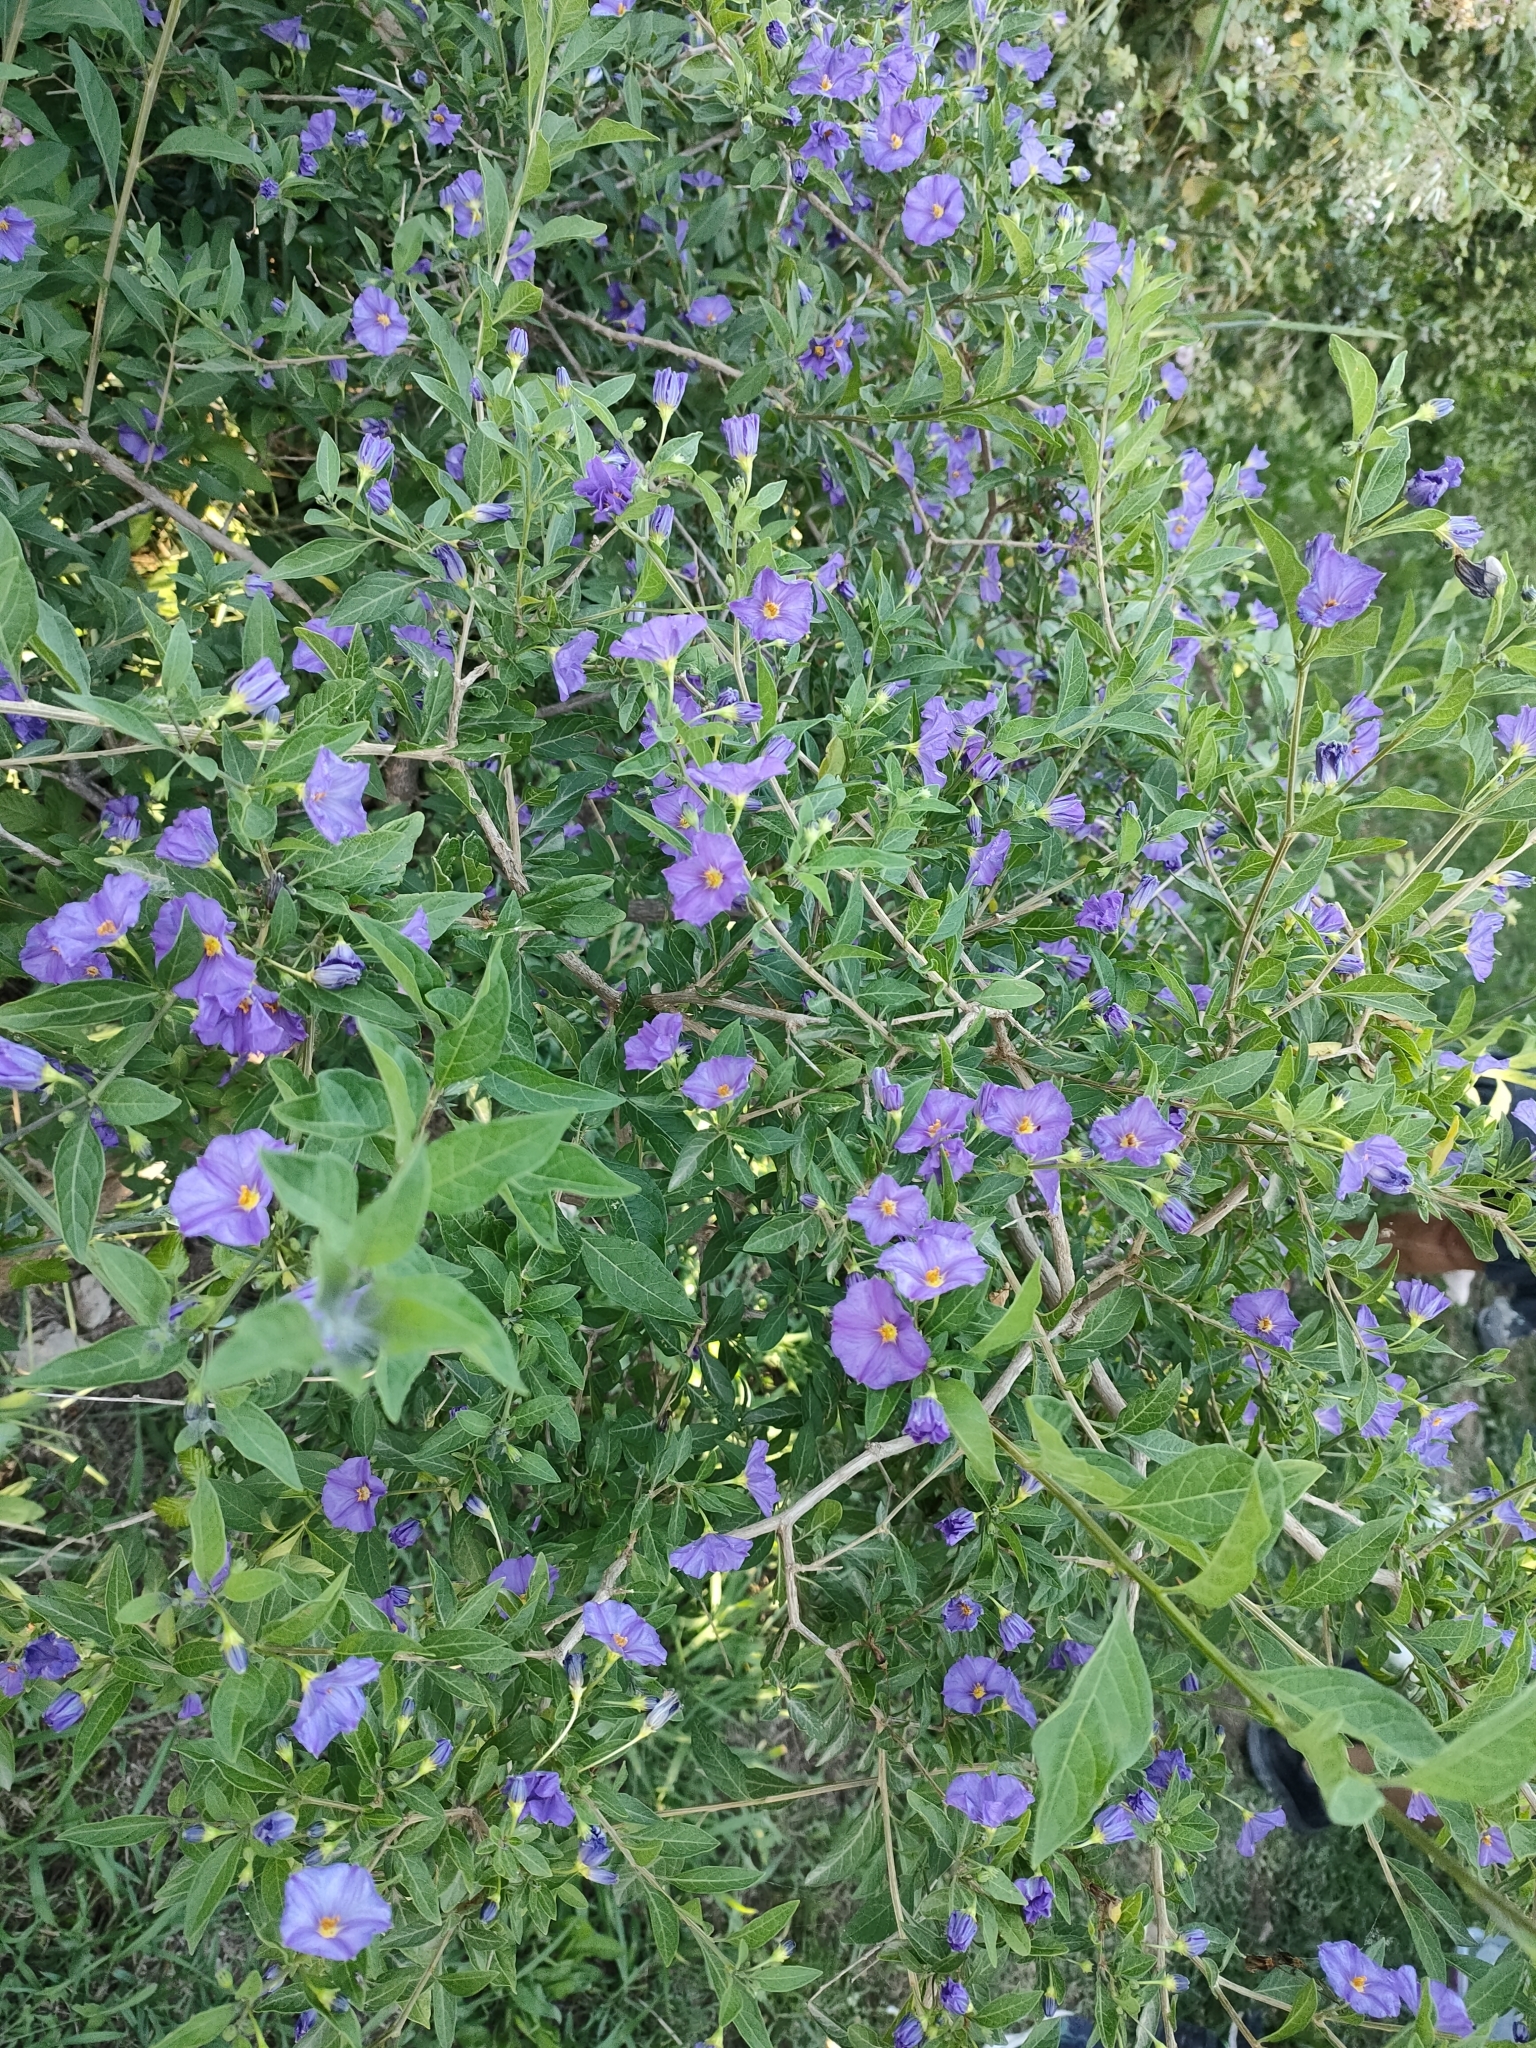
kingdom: Plantae
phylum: Tracheophyta
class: Magnoliopsida
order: Solanales
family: Solanaceae
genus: Lycianthes
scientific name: Lycianthes rantonnetii
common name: Blue potatobush
